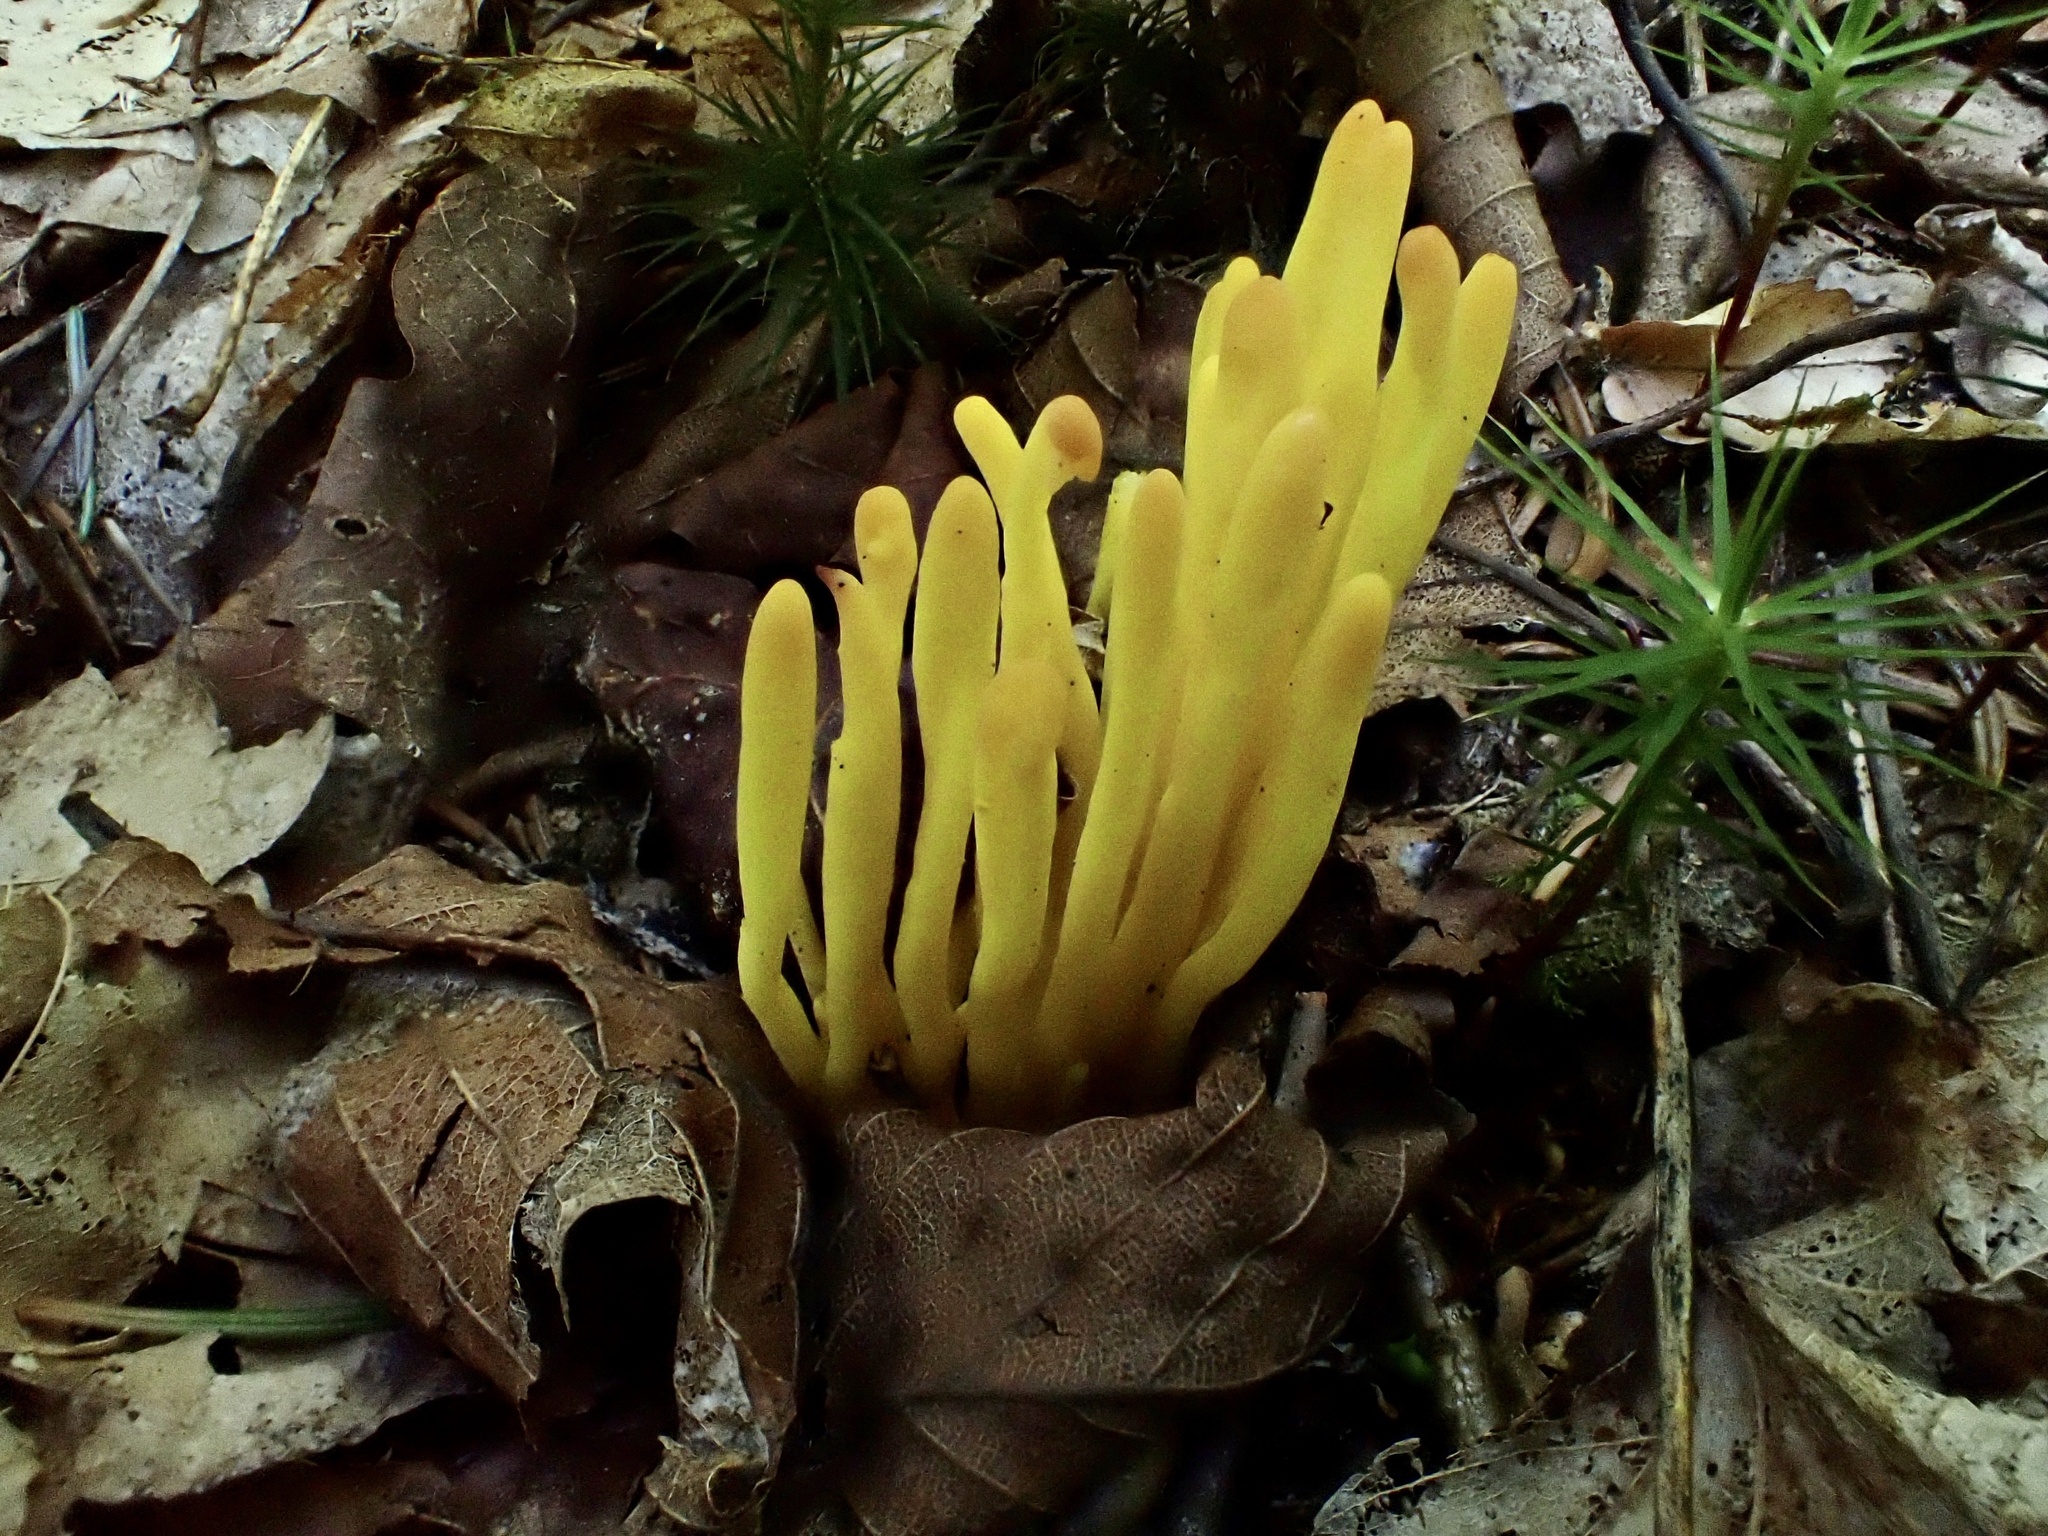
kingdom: Fungi
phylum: Basidiomycota
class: Agaricomycetes
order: Agaricales
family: Clavariaceae
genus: Clavulinopsis
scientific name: Clavulinopsis fusiformis
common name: Golden spindles
